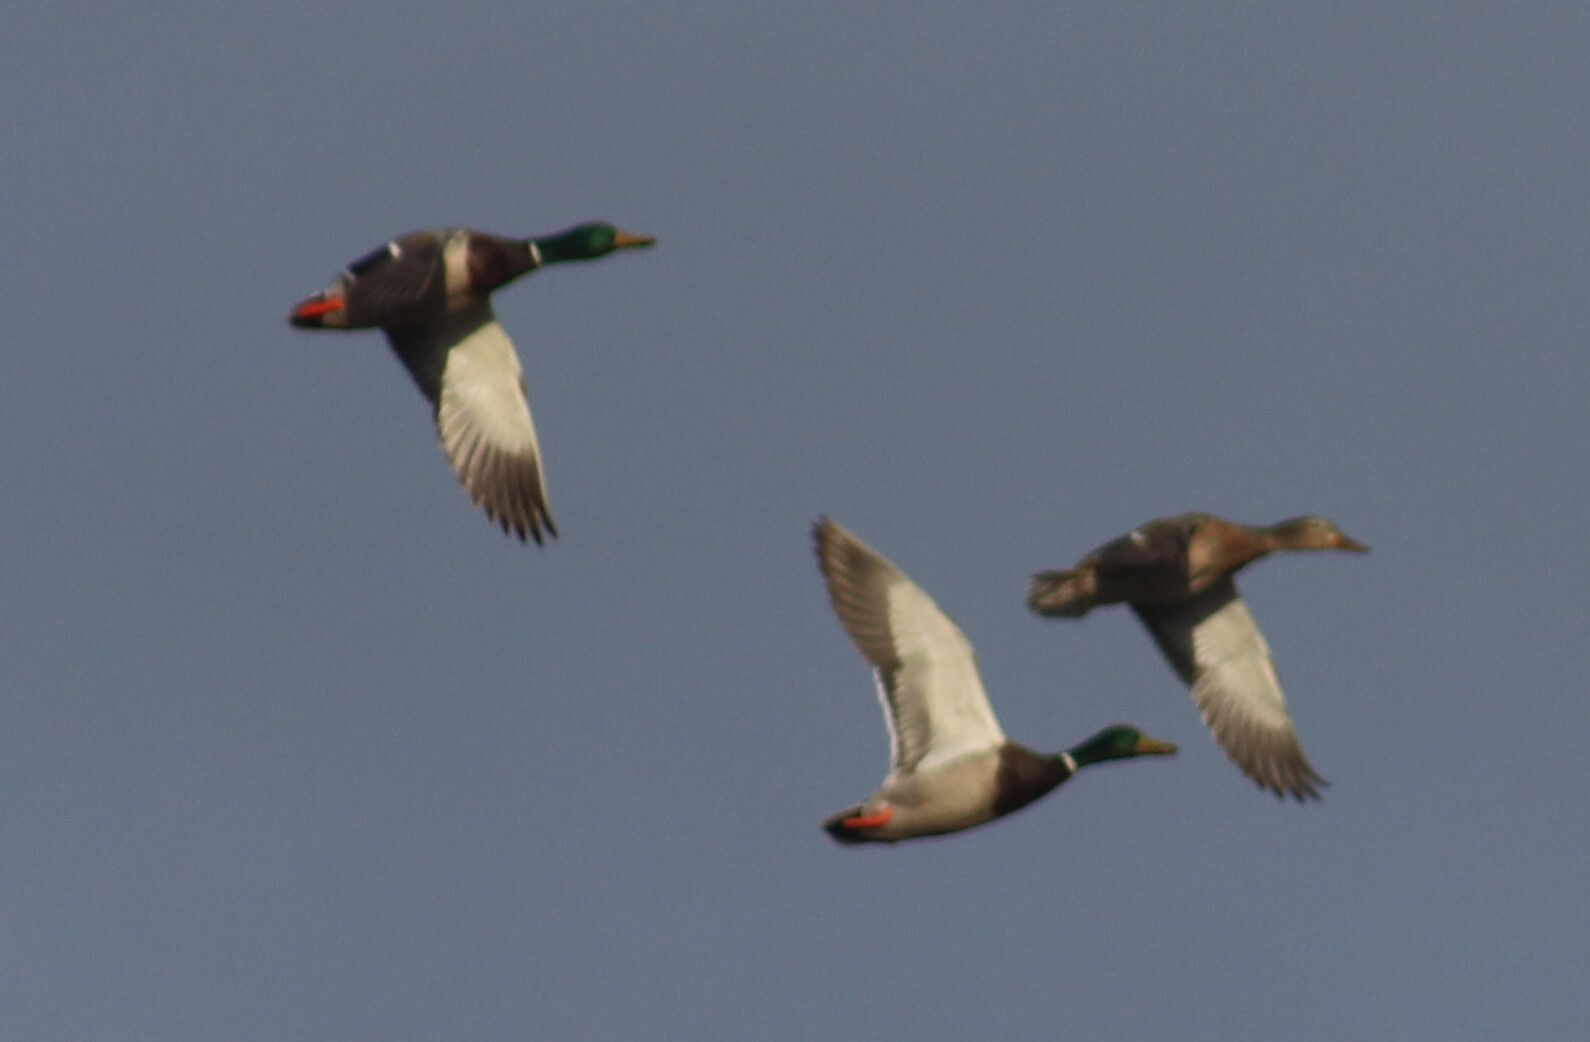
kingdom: Animalia
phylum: Chordata
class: Aves
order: Anseriformes
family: Anatidae
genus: Anas
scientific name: Anas platyrhynchos
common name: Mallard
